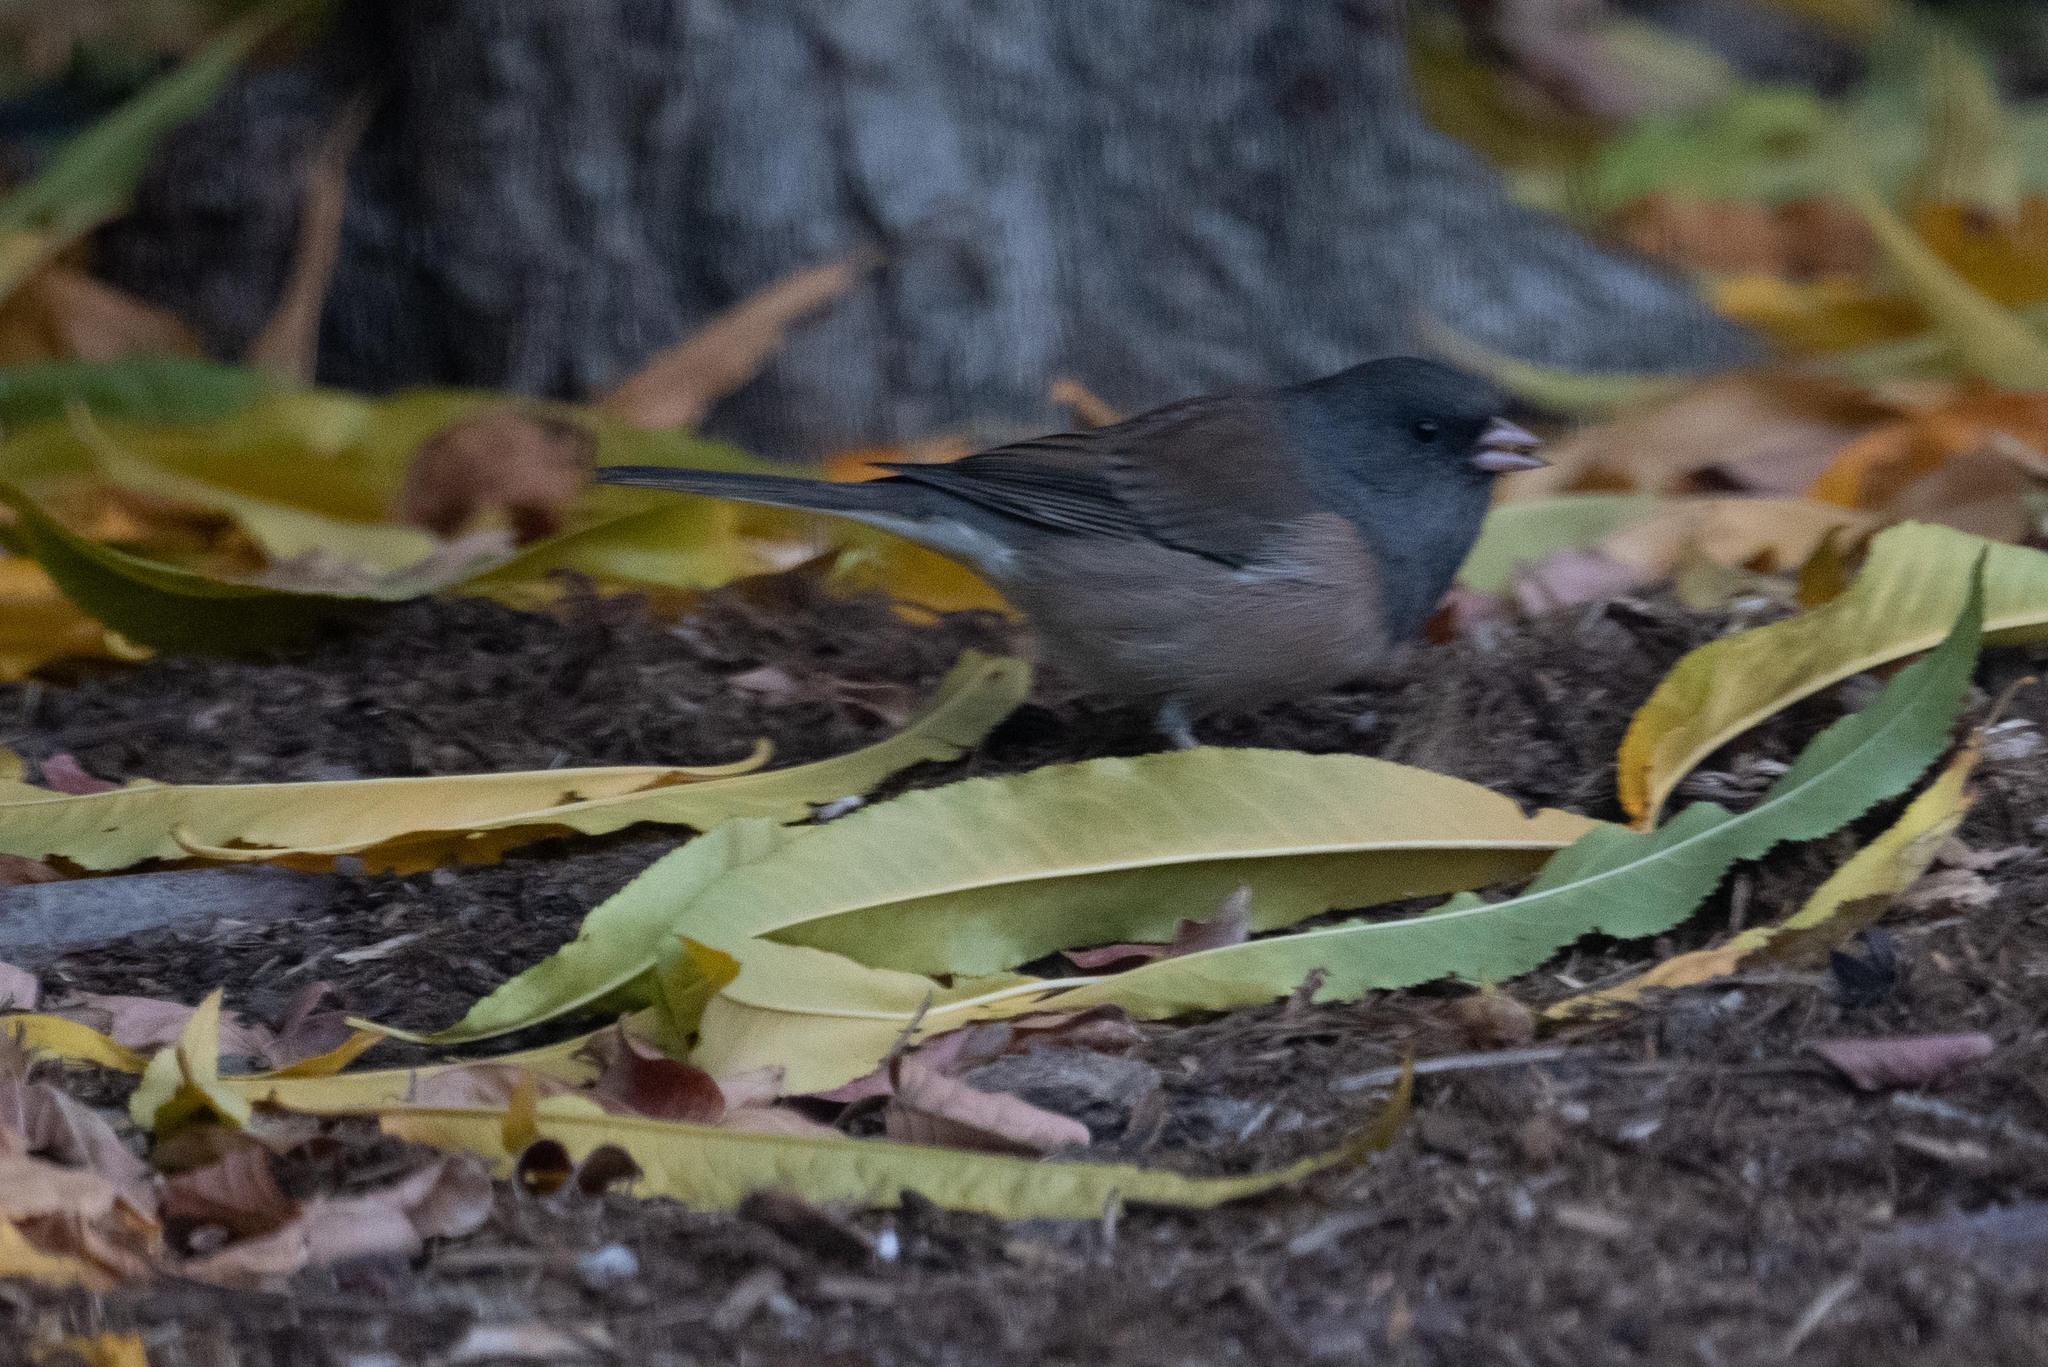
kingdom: Animalia
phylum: Chordata
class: Aves
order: Passeriformes
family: Passerellidae
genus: Junco
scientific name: Junco hyemalis
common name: Dark-eyed junco
